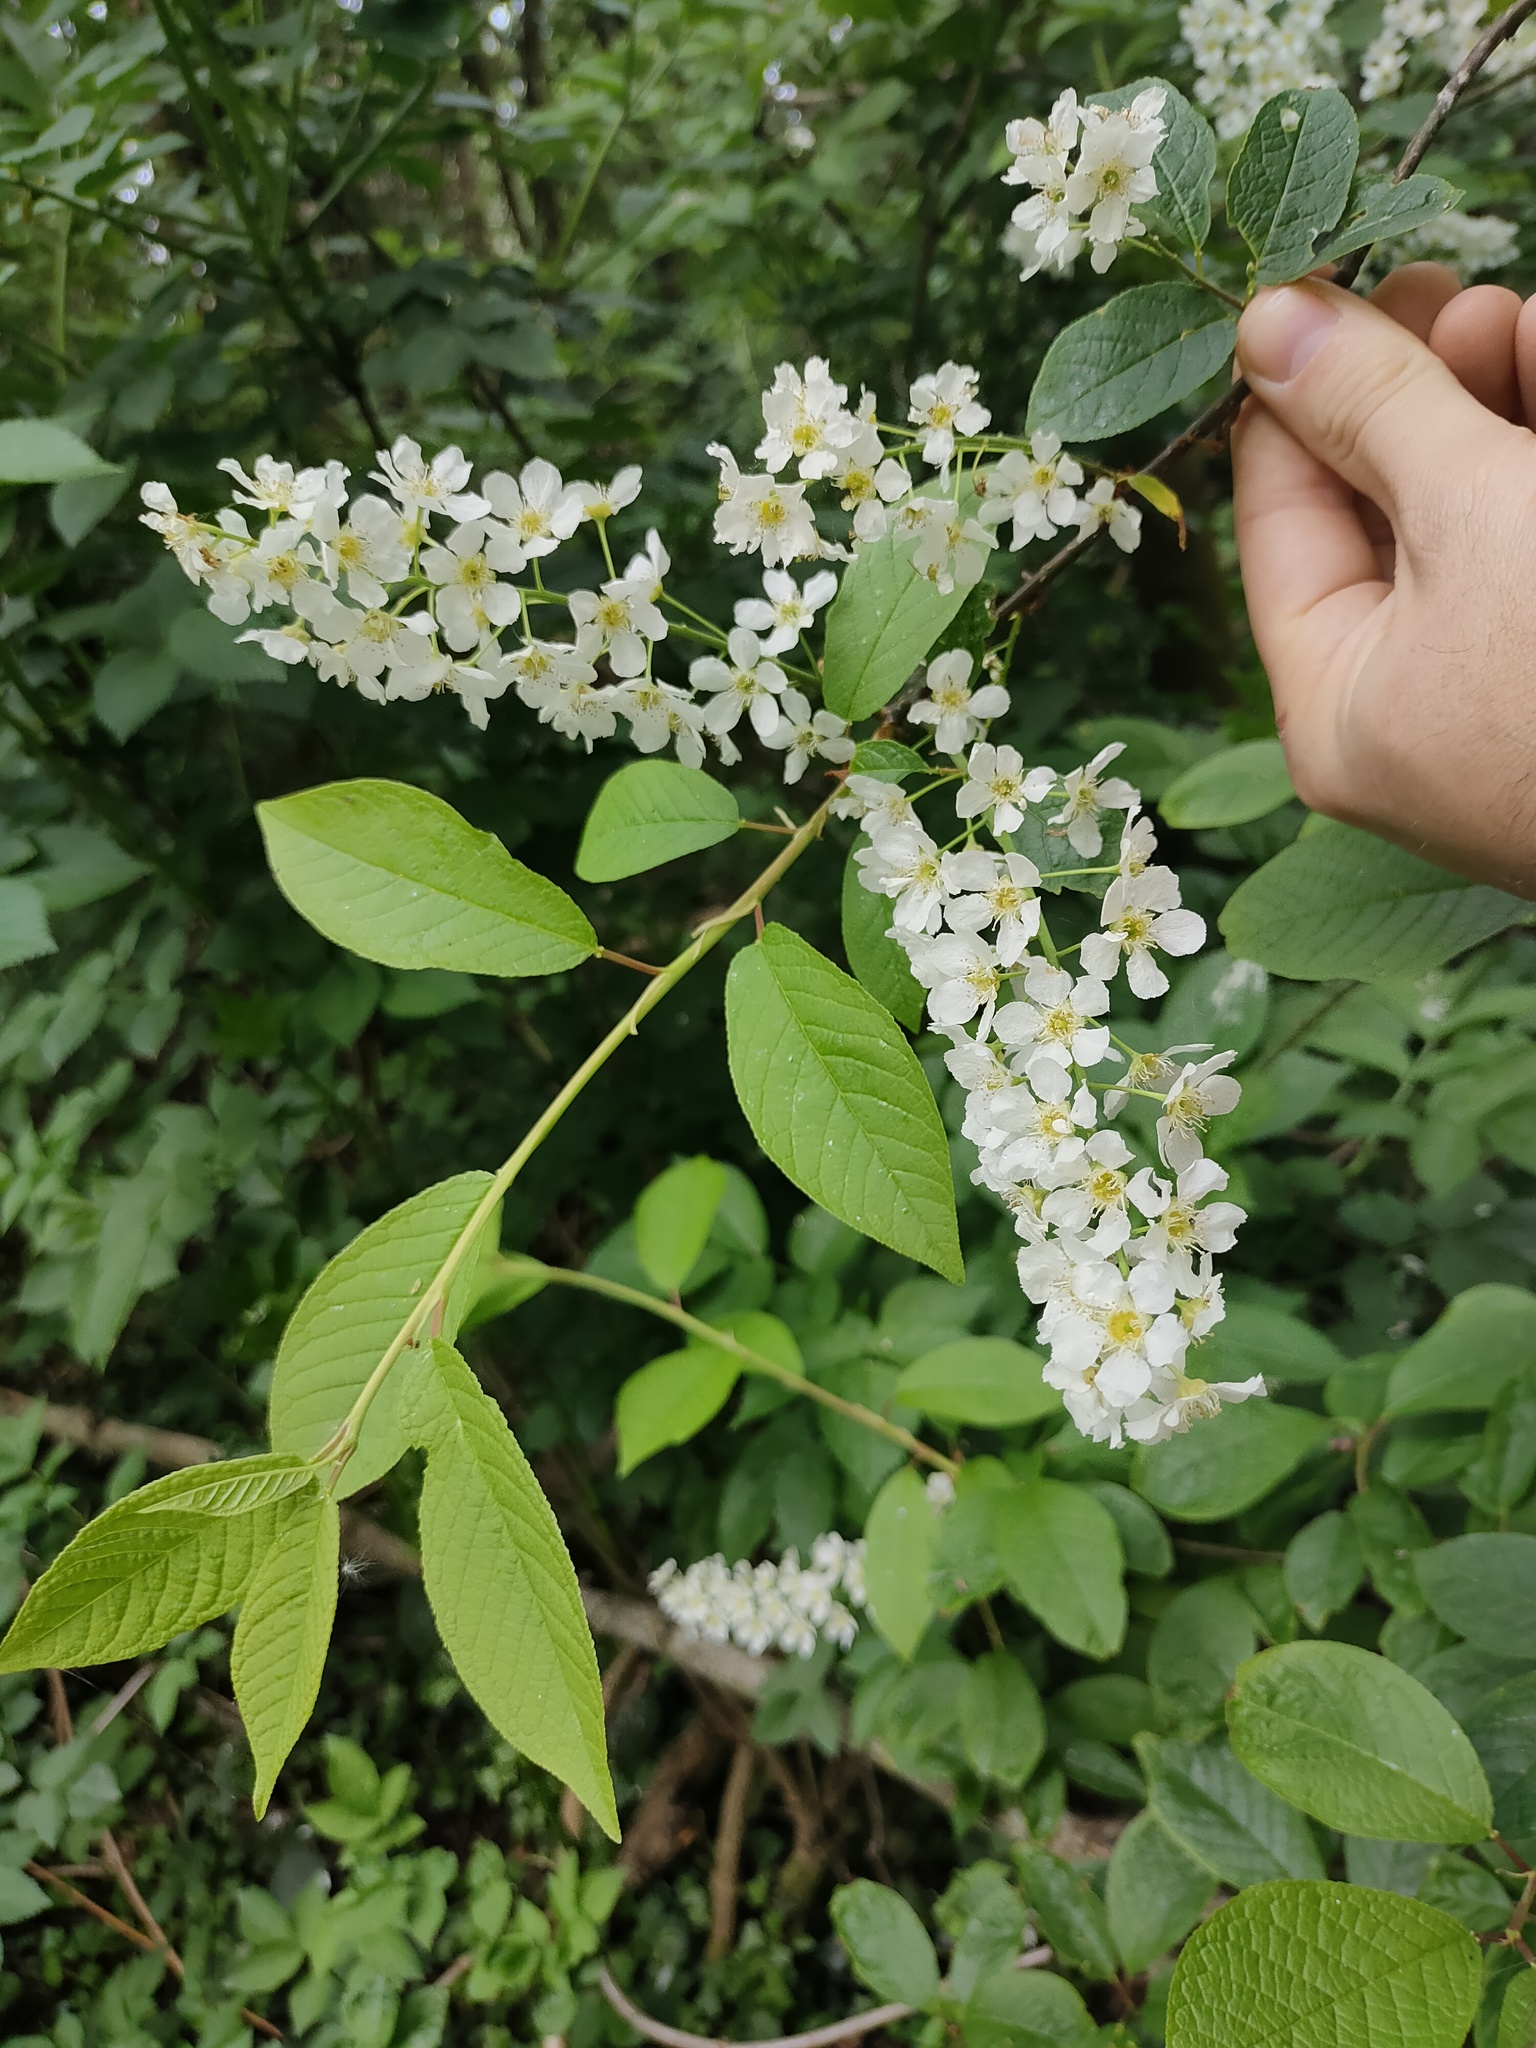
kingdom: Plantae
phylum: Tracheophyta
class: Magnoliopsida
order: Rosales
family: Rosaceae
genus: Prunus
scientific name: Prunus padus
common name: Bird cherry
